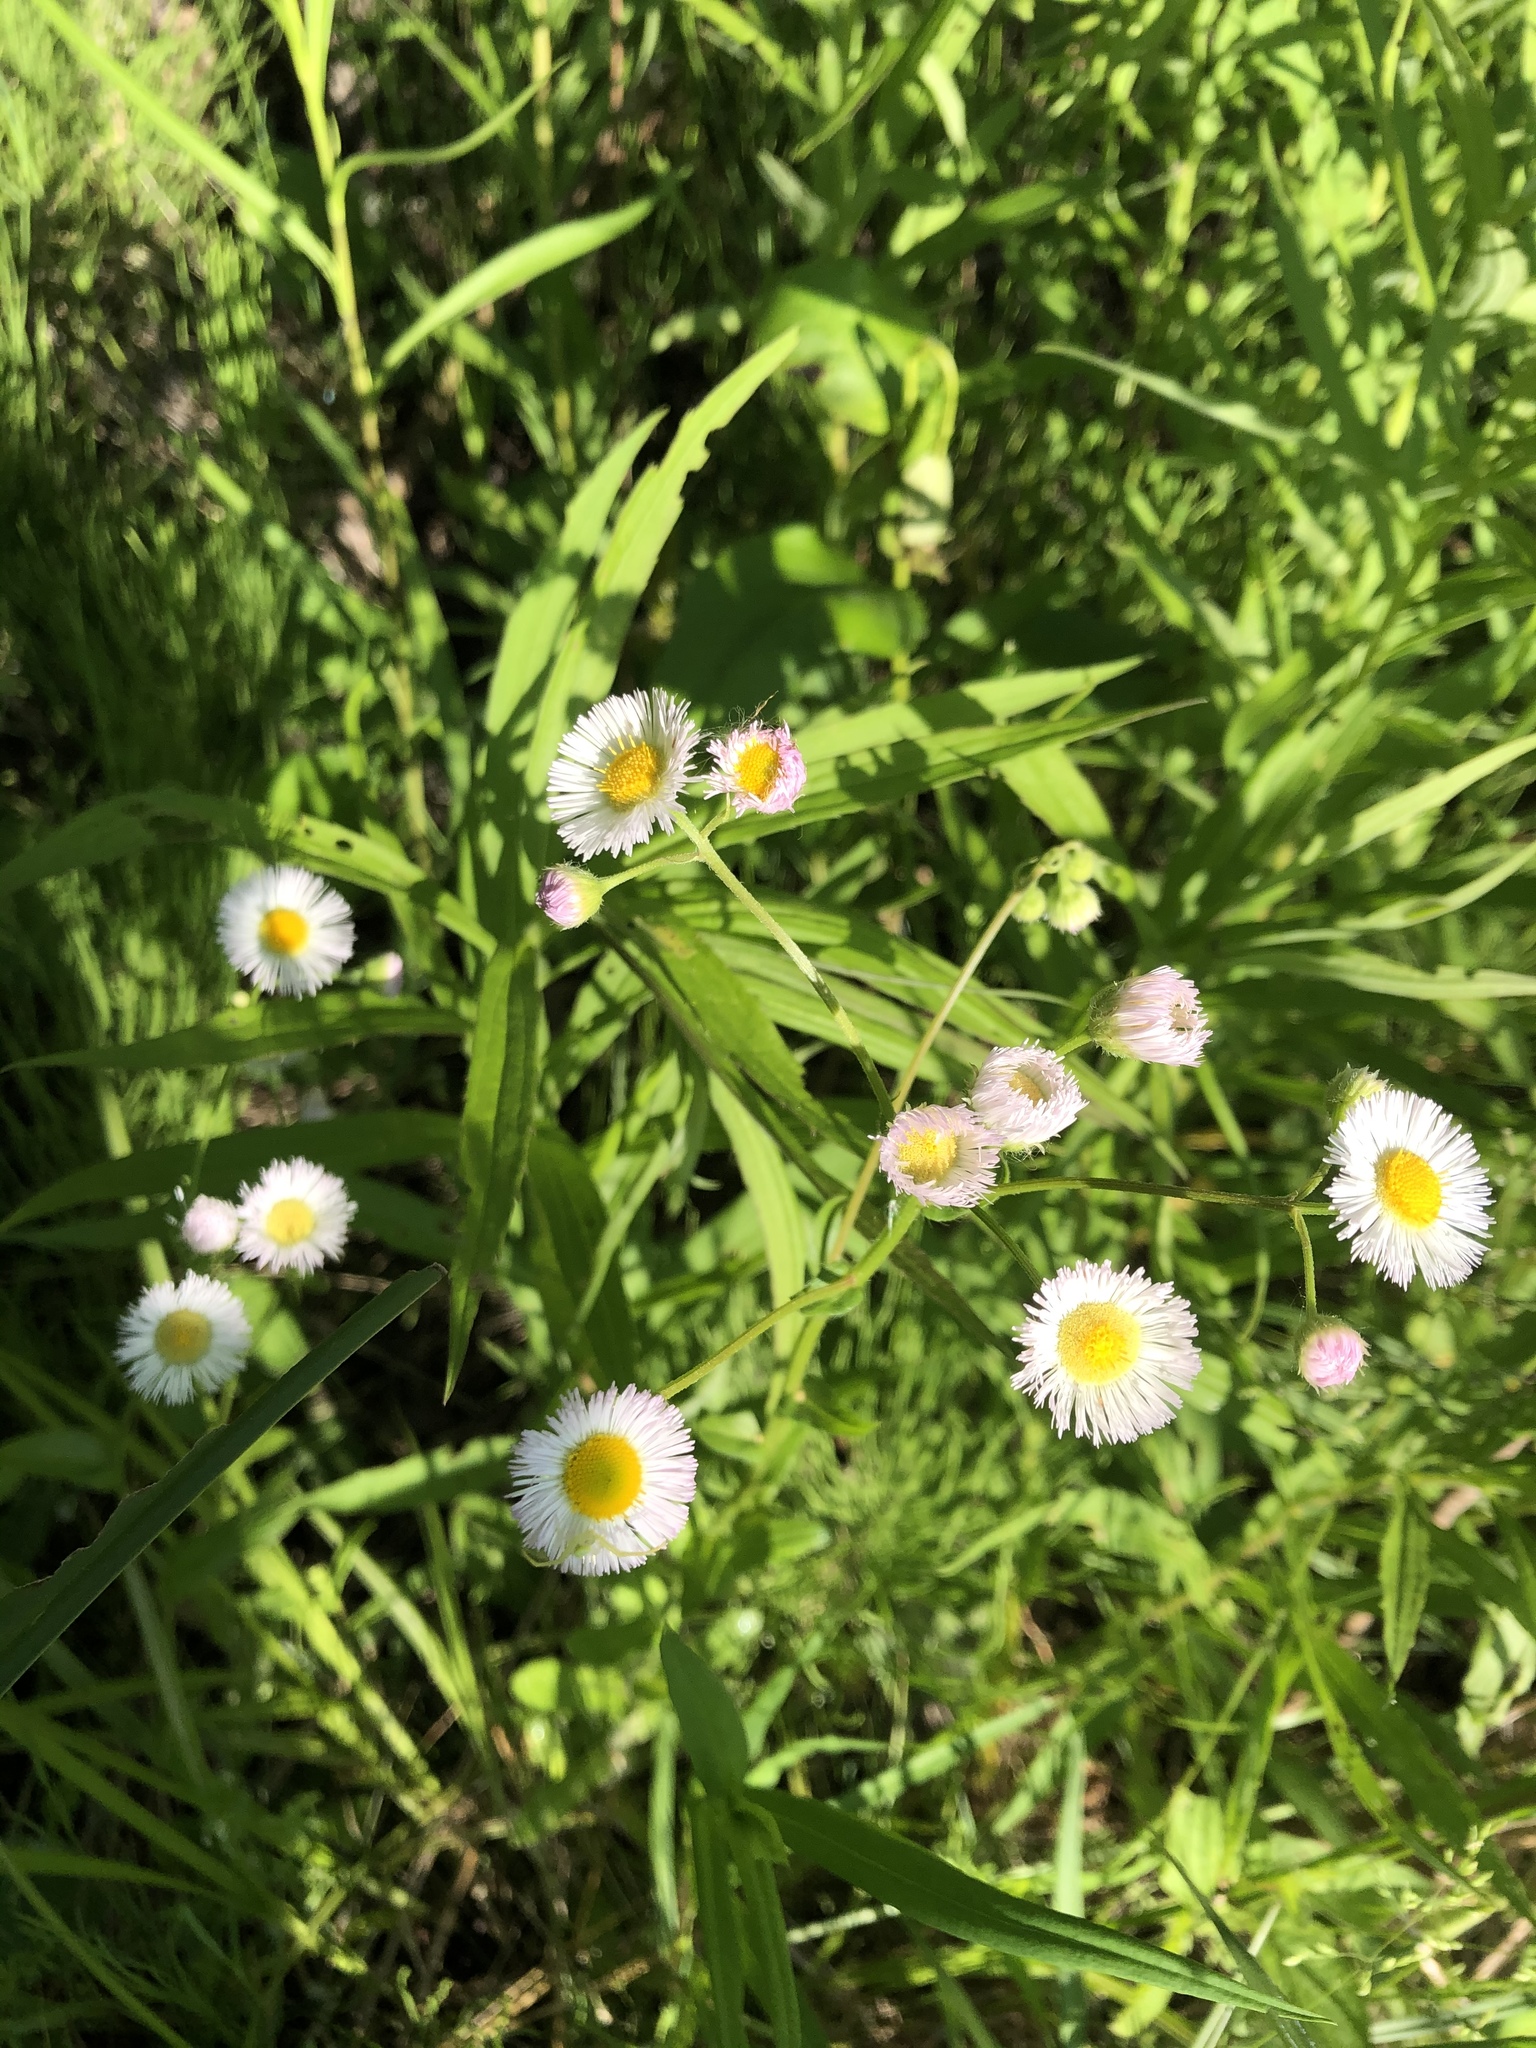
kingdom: Plantae
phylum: Tracheophyta
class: Magnoliopsida
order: Asterales
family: Asteraceae
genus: Erigeron
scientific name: Erigeron philadelphicus
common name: Robin's-plantain
